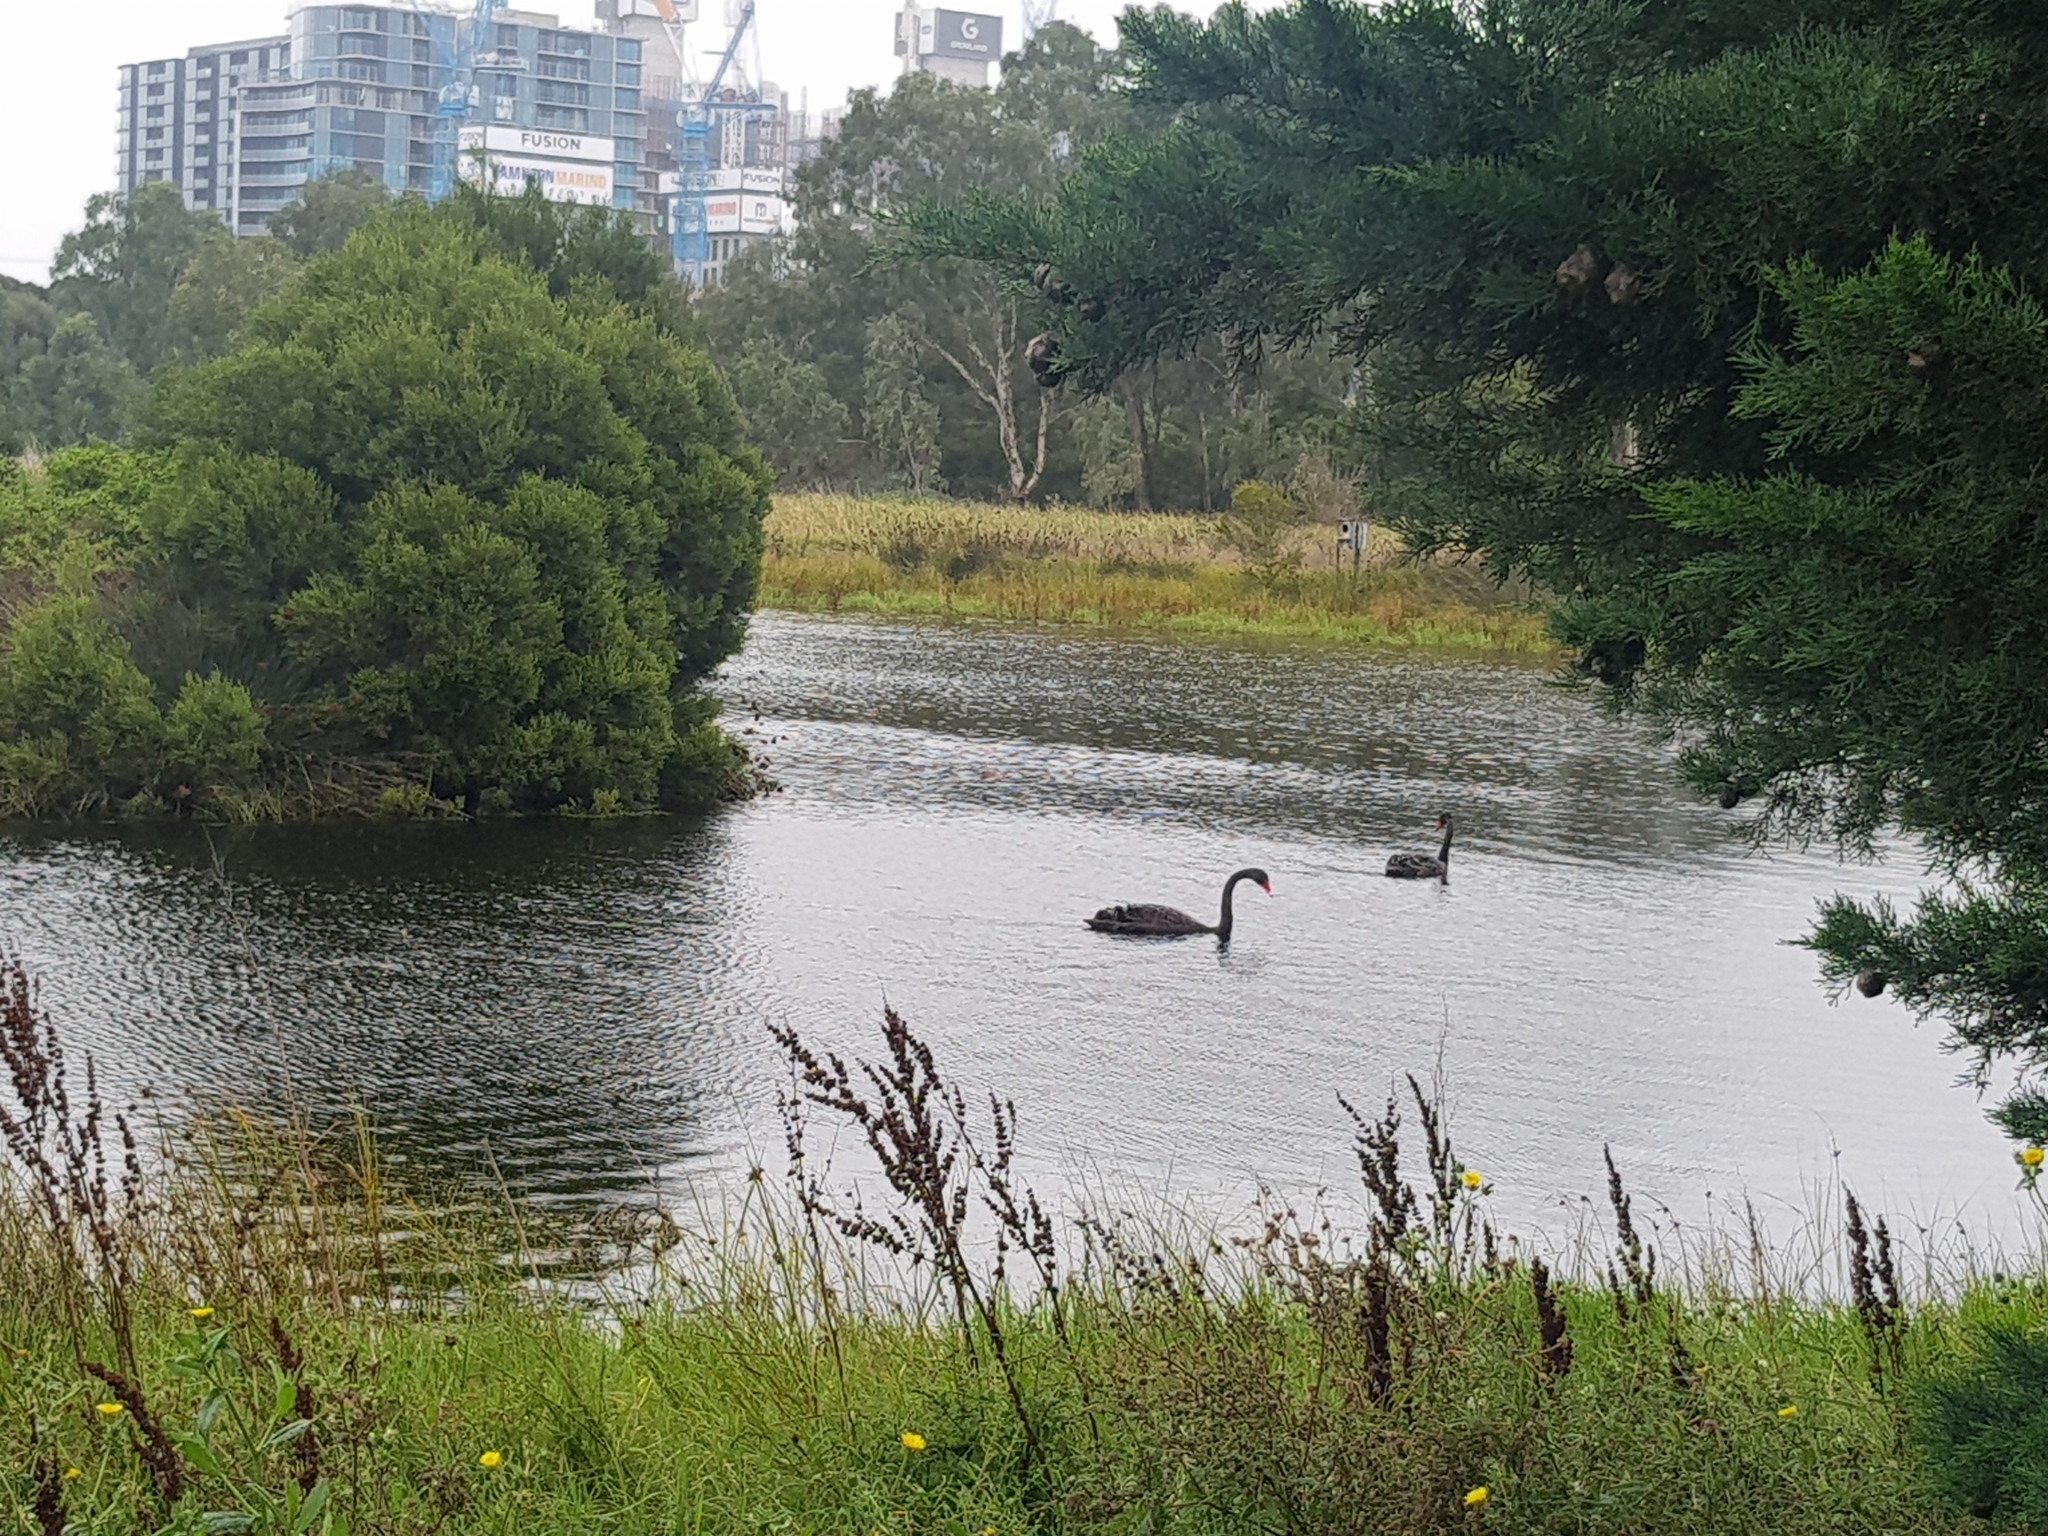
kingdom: Animalia
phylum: Chordata
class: Aves
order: Anseriformes
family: Anatidae
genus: Cygnus
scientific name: Cygnus atratus
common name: Black swan
